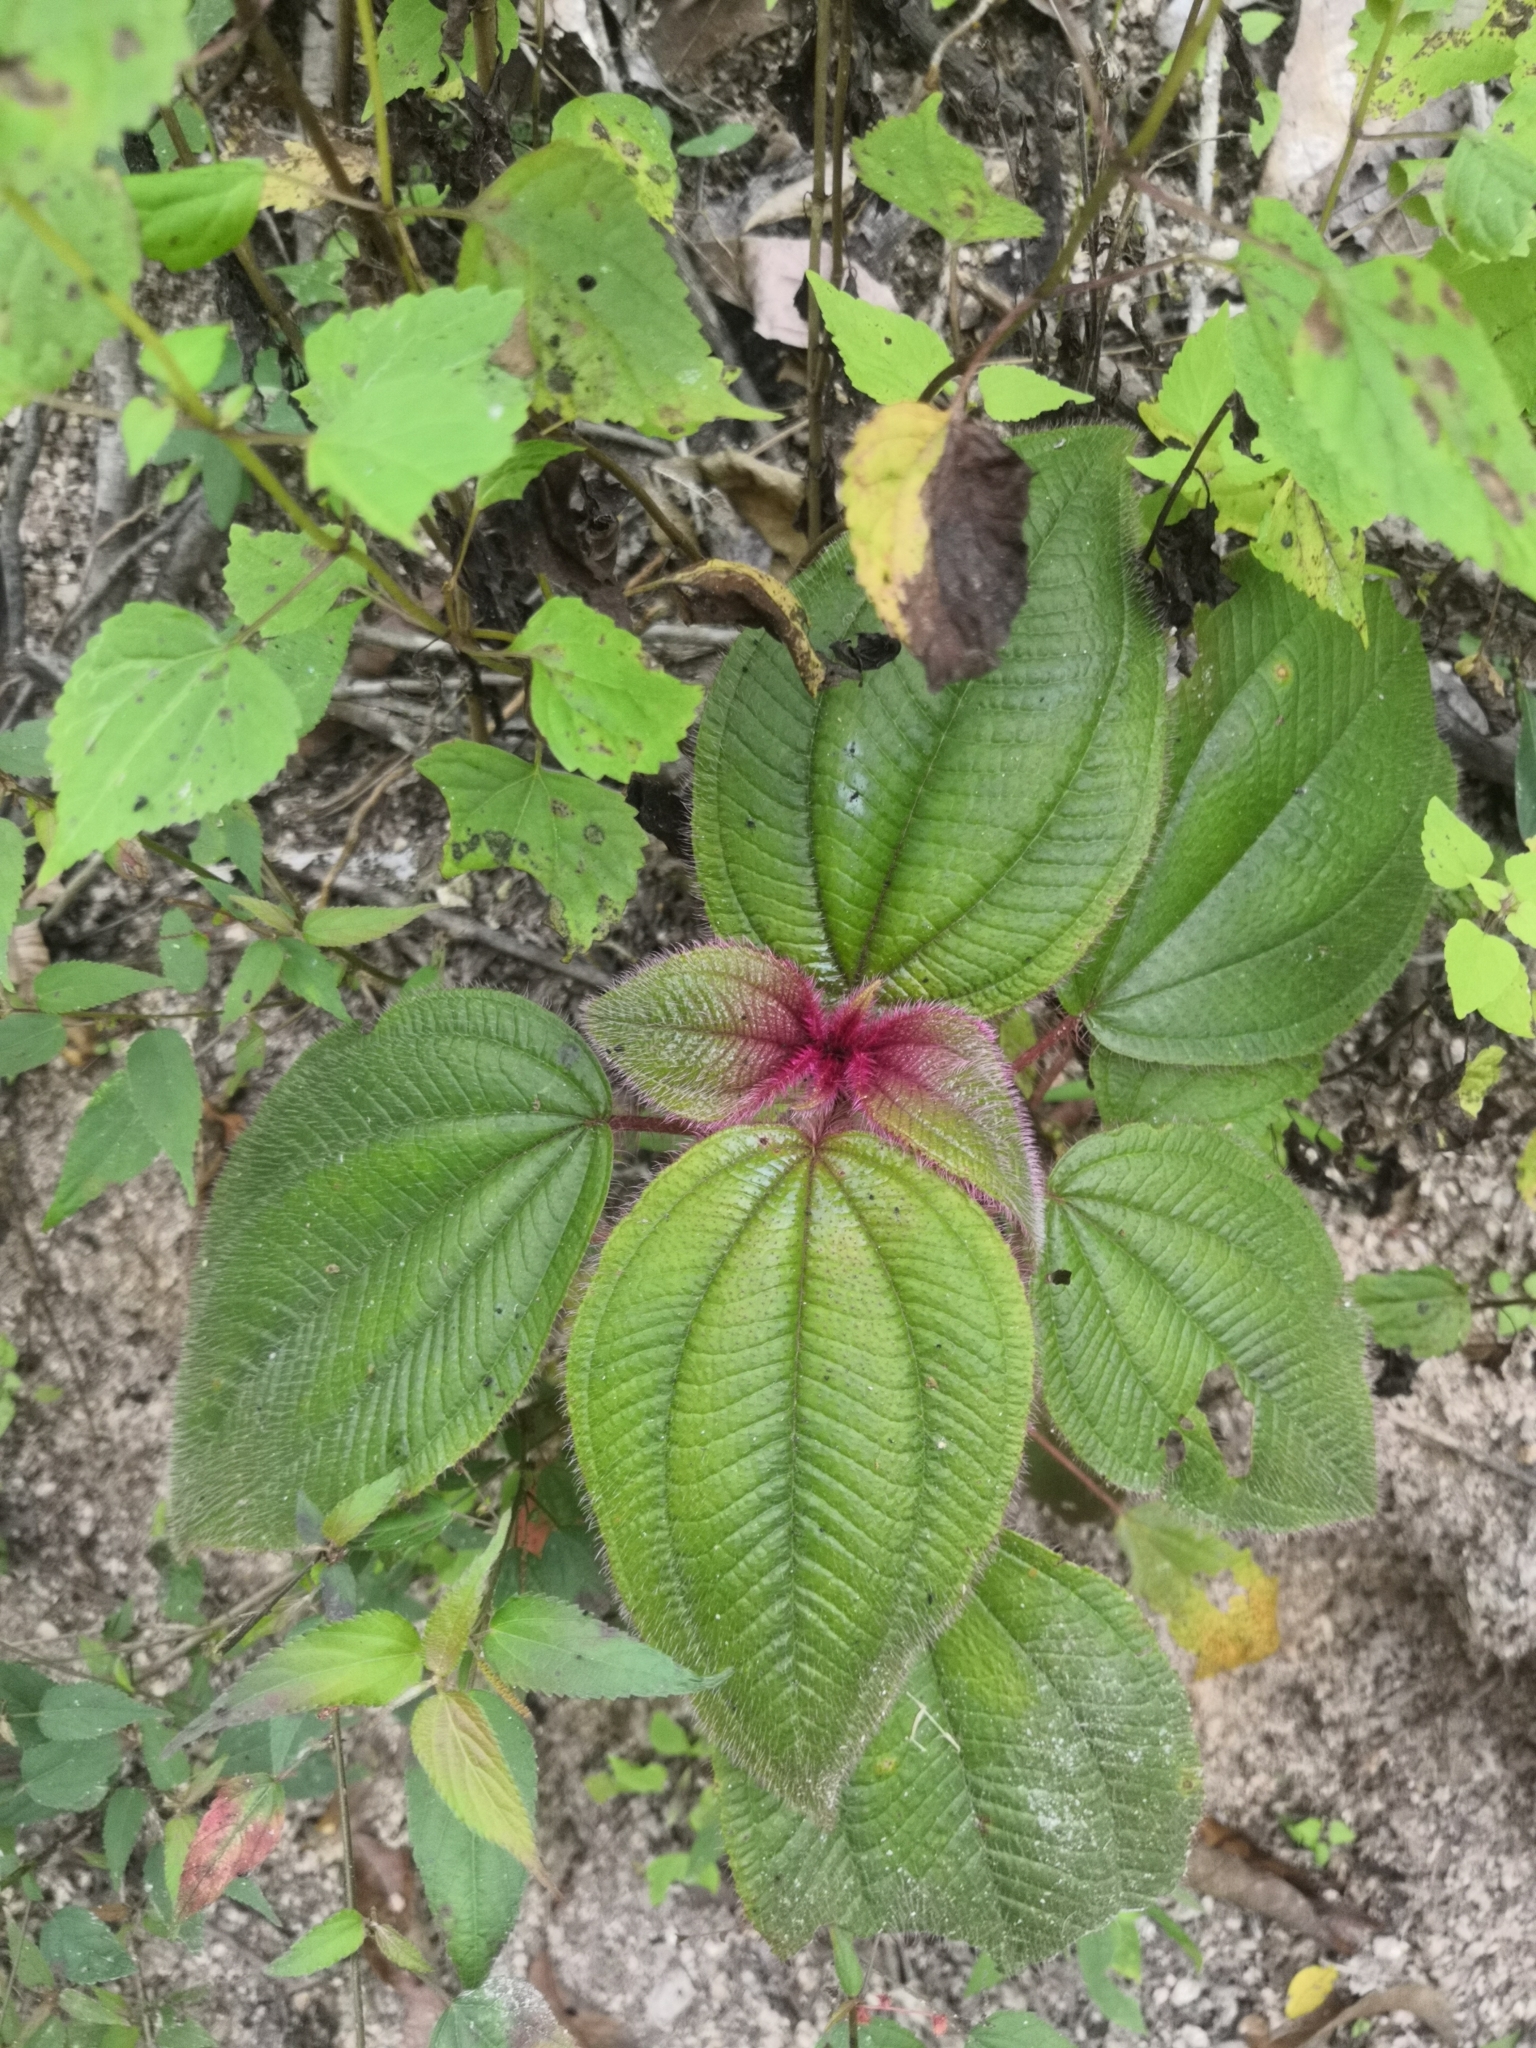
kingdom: Plantae
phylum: Tracheophyta
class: Magnoliopsida
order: Myrtales
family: Melastomataceae
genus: Miconia
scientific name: Miconia vallartensis
